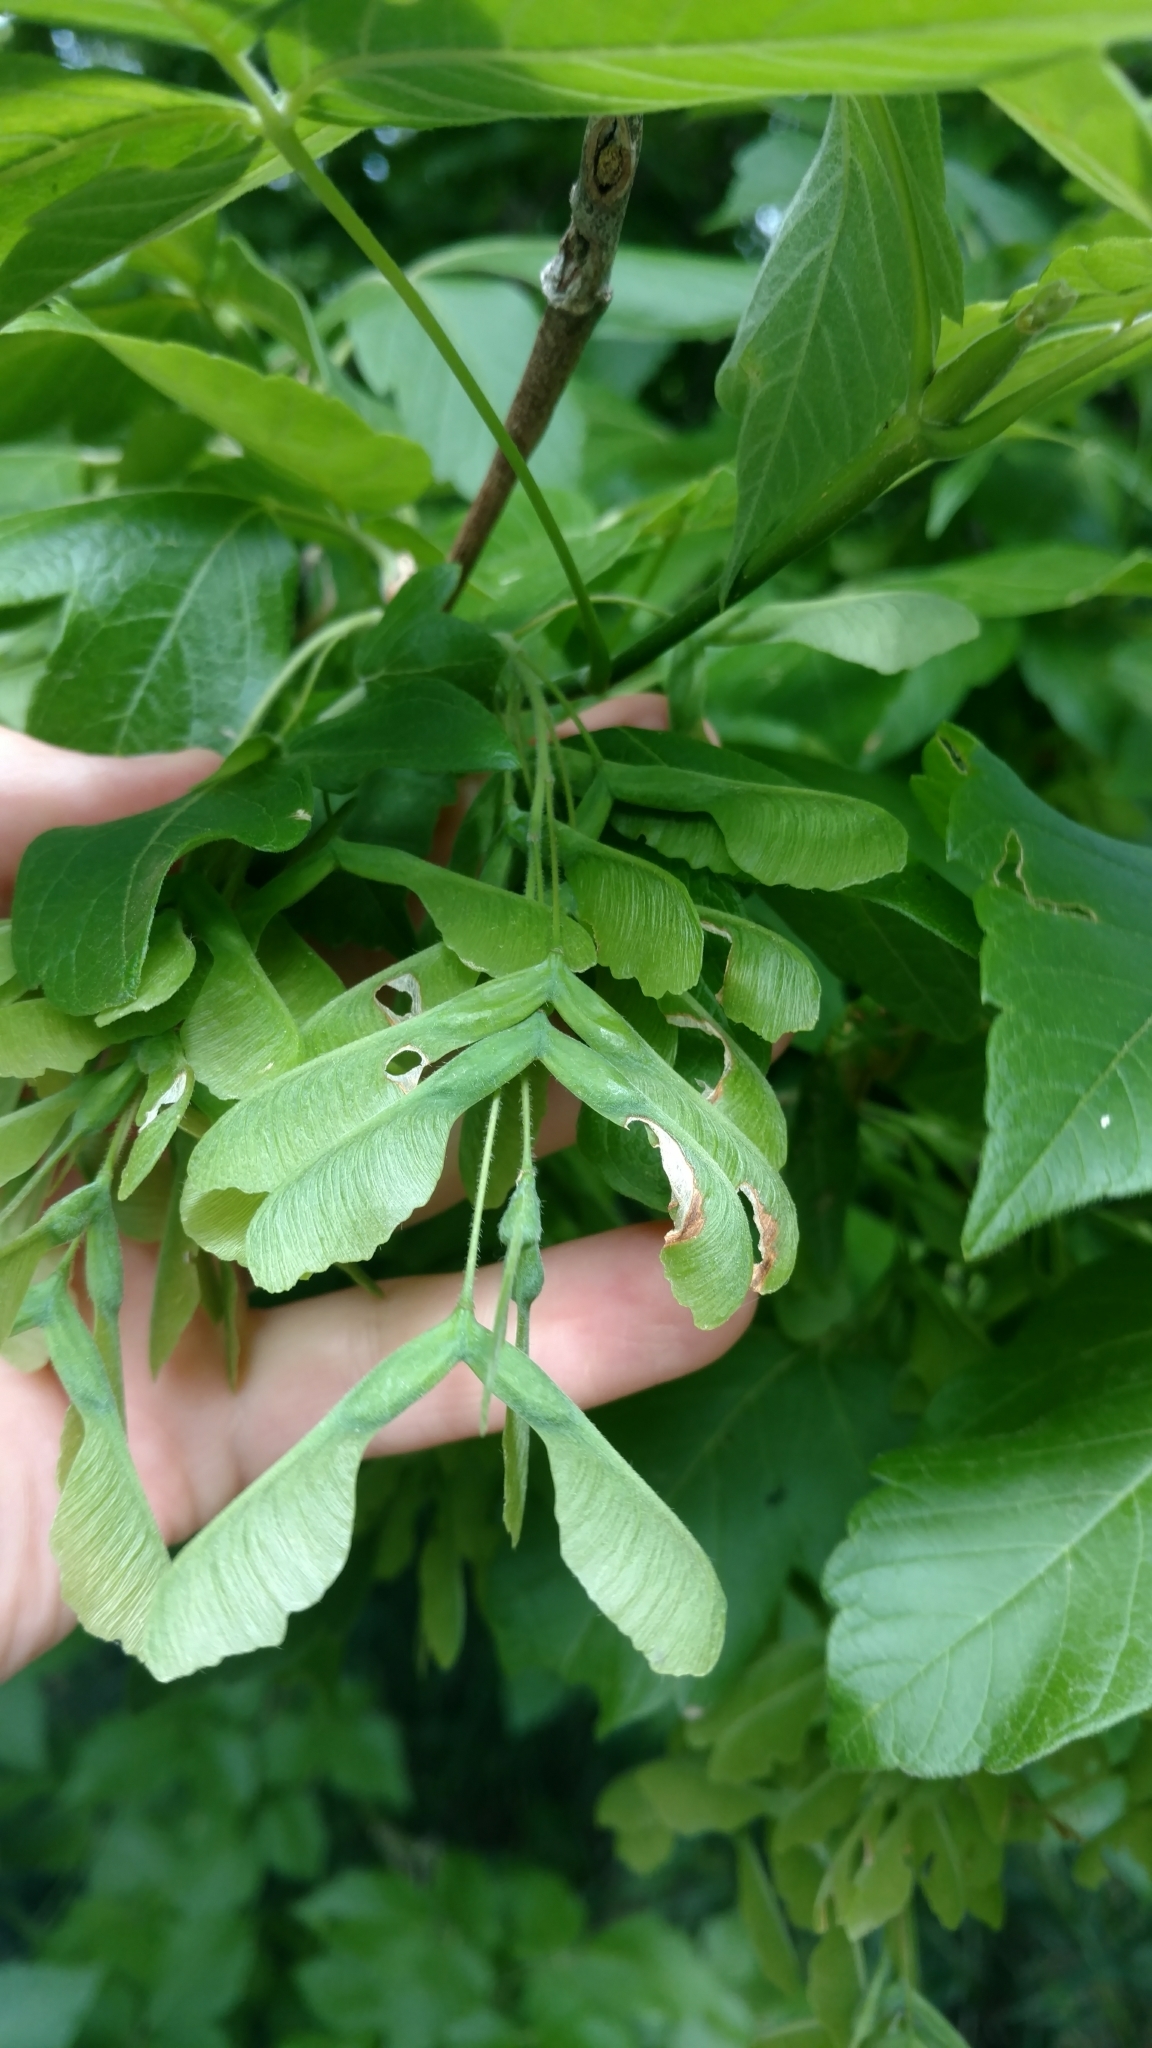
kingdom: Plantae
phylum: Tracheophyta
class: Magnoliopsida
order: Sapindales
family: Sapindaceae
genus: Acer
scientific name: Acer negundo
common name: Ashleaf maple
